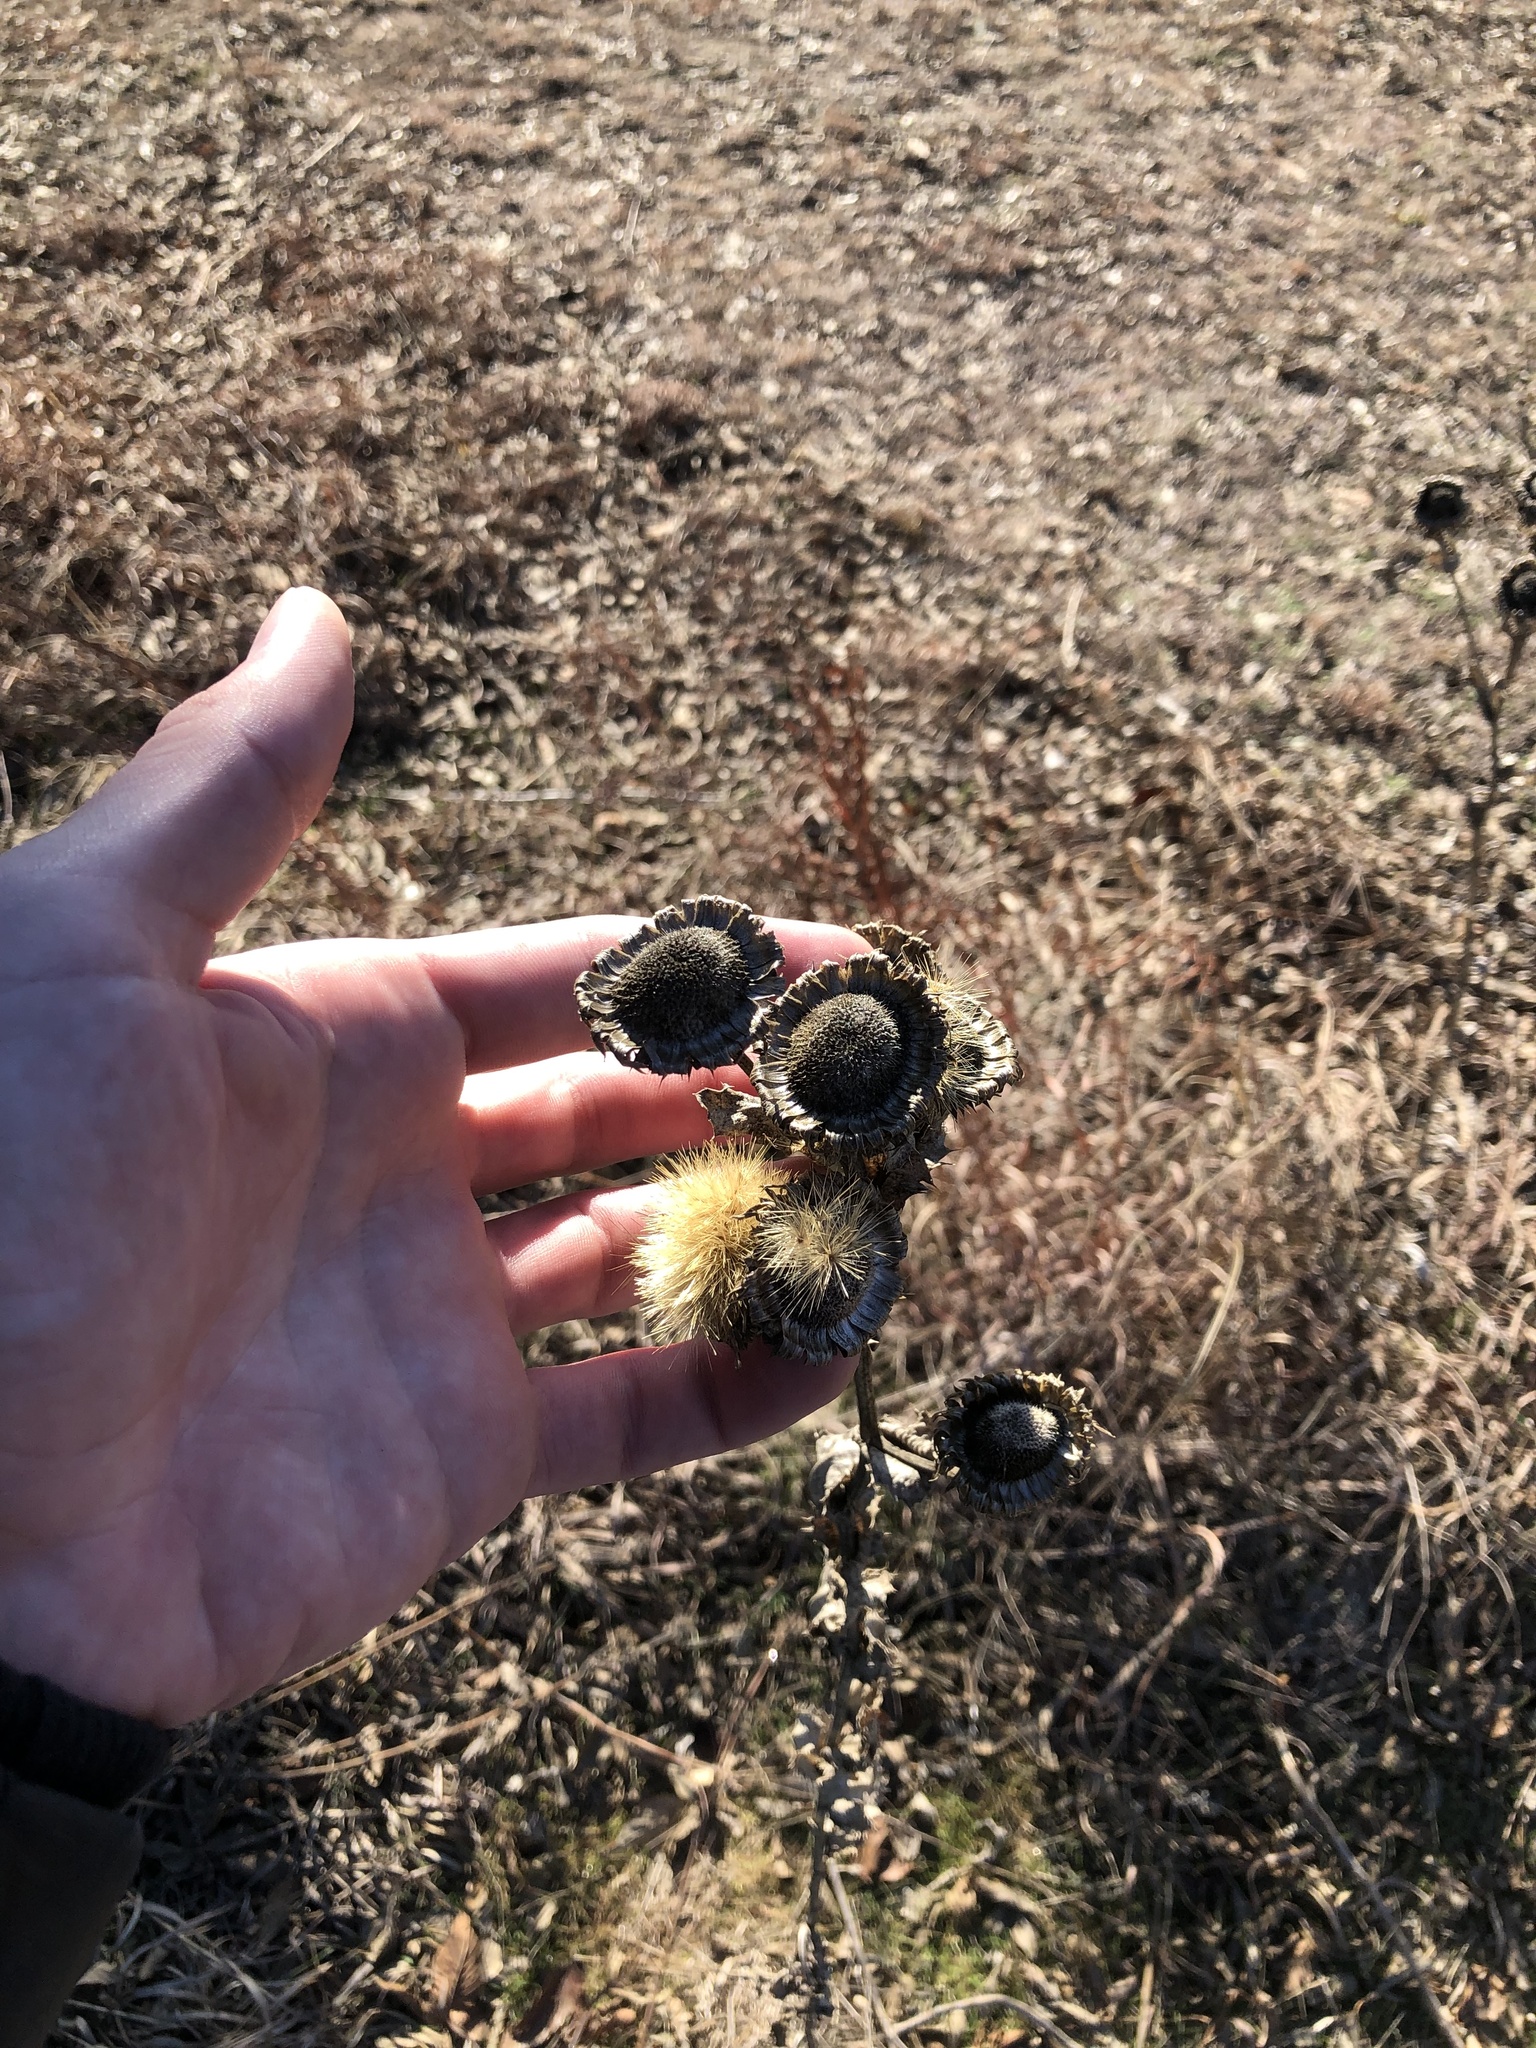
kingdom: Plantae
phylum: Tracheophyta
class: Magnoliopsida
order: Asterales
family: Asteraceae
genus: Grindelia
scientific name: Grindelia ciliata
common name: Goldenweed
